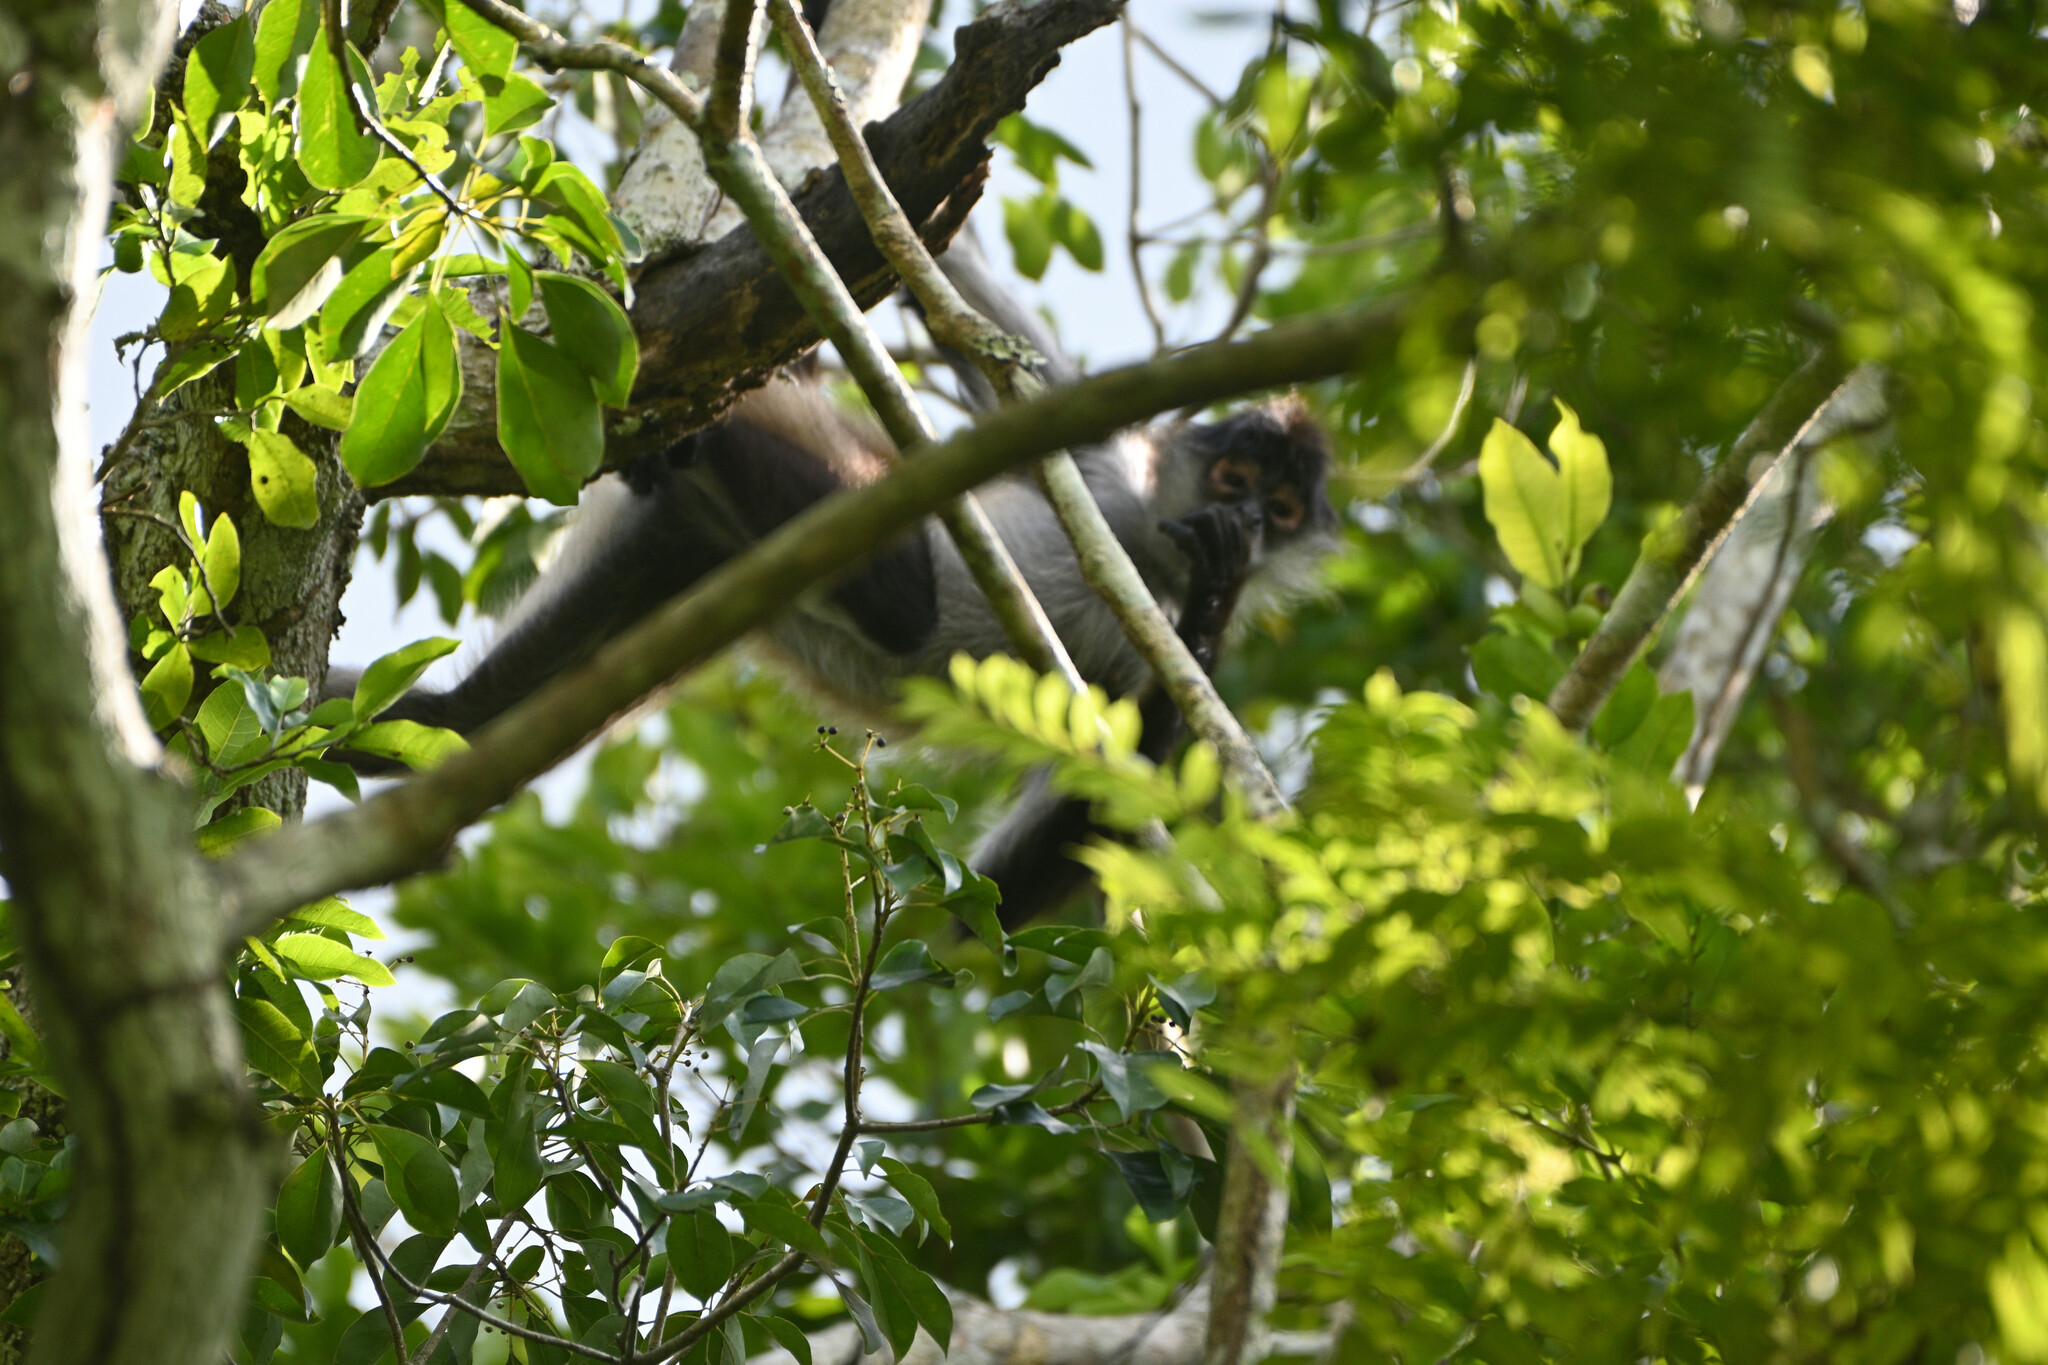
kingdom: Animalia
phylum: Chordata
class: Mammalia
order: Primates
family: Atelidae
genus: Ateles
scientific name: Ateles geoffroyi
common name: Black-handed spider monkey
